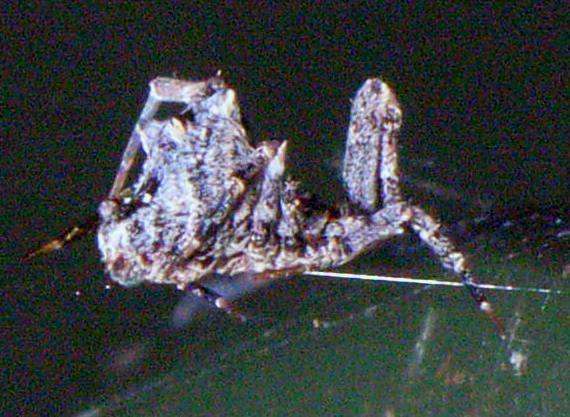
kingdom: Animalia
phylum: Arthropoda
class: Arachnida
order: Araneae
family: Uloboridae
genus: Philoponella
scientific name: Philoponella congregabilis
